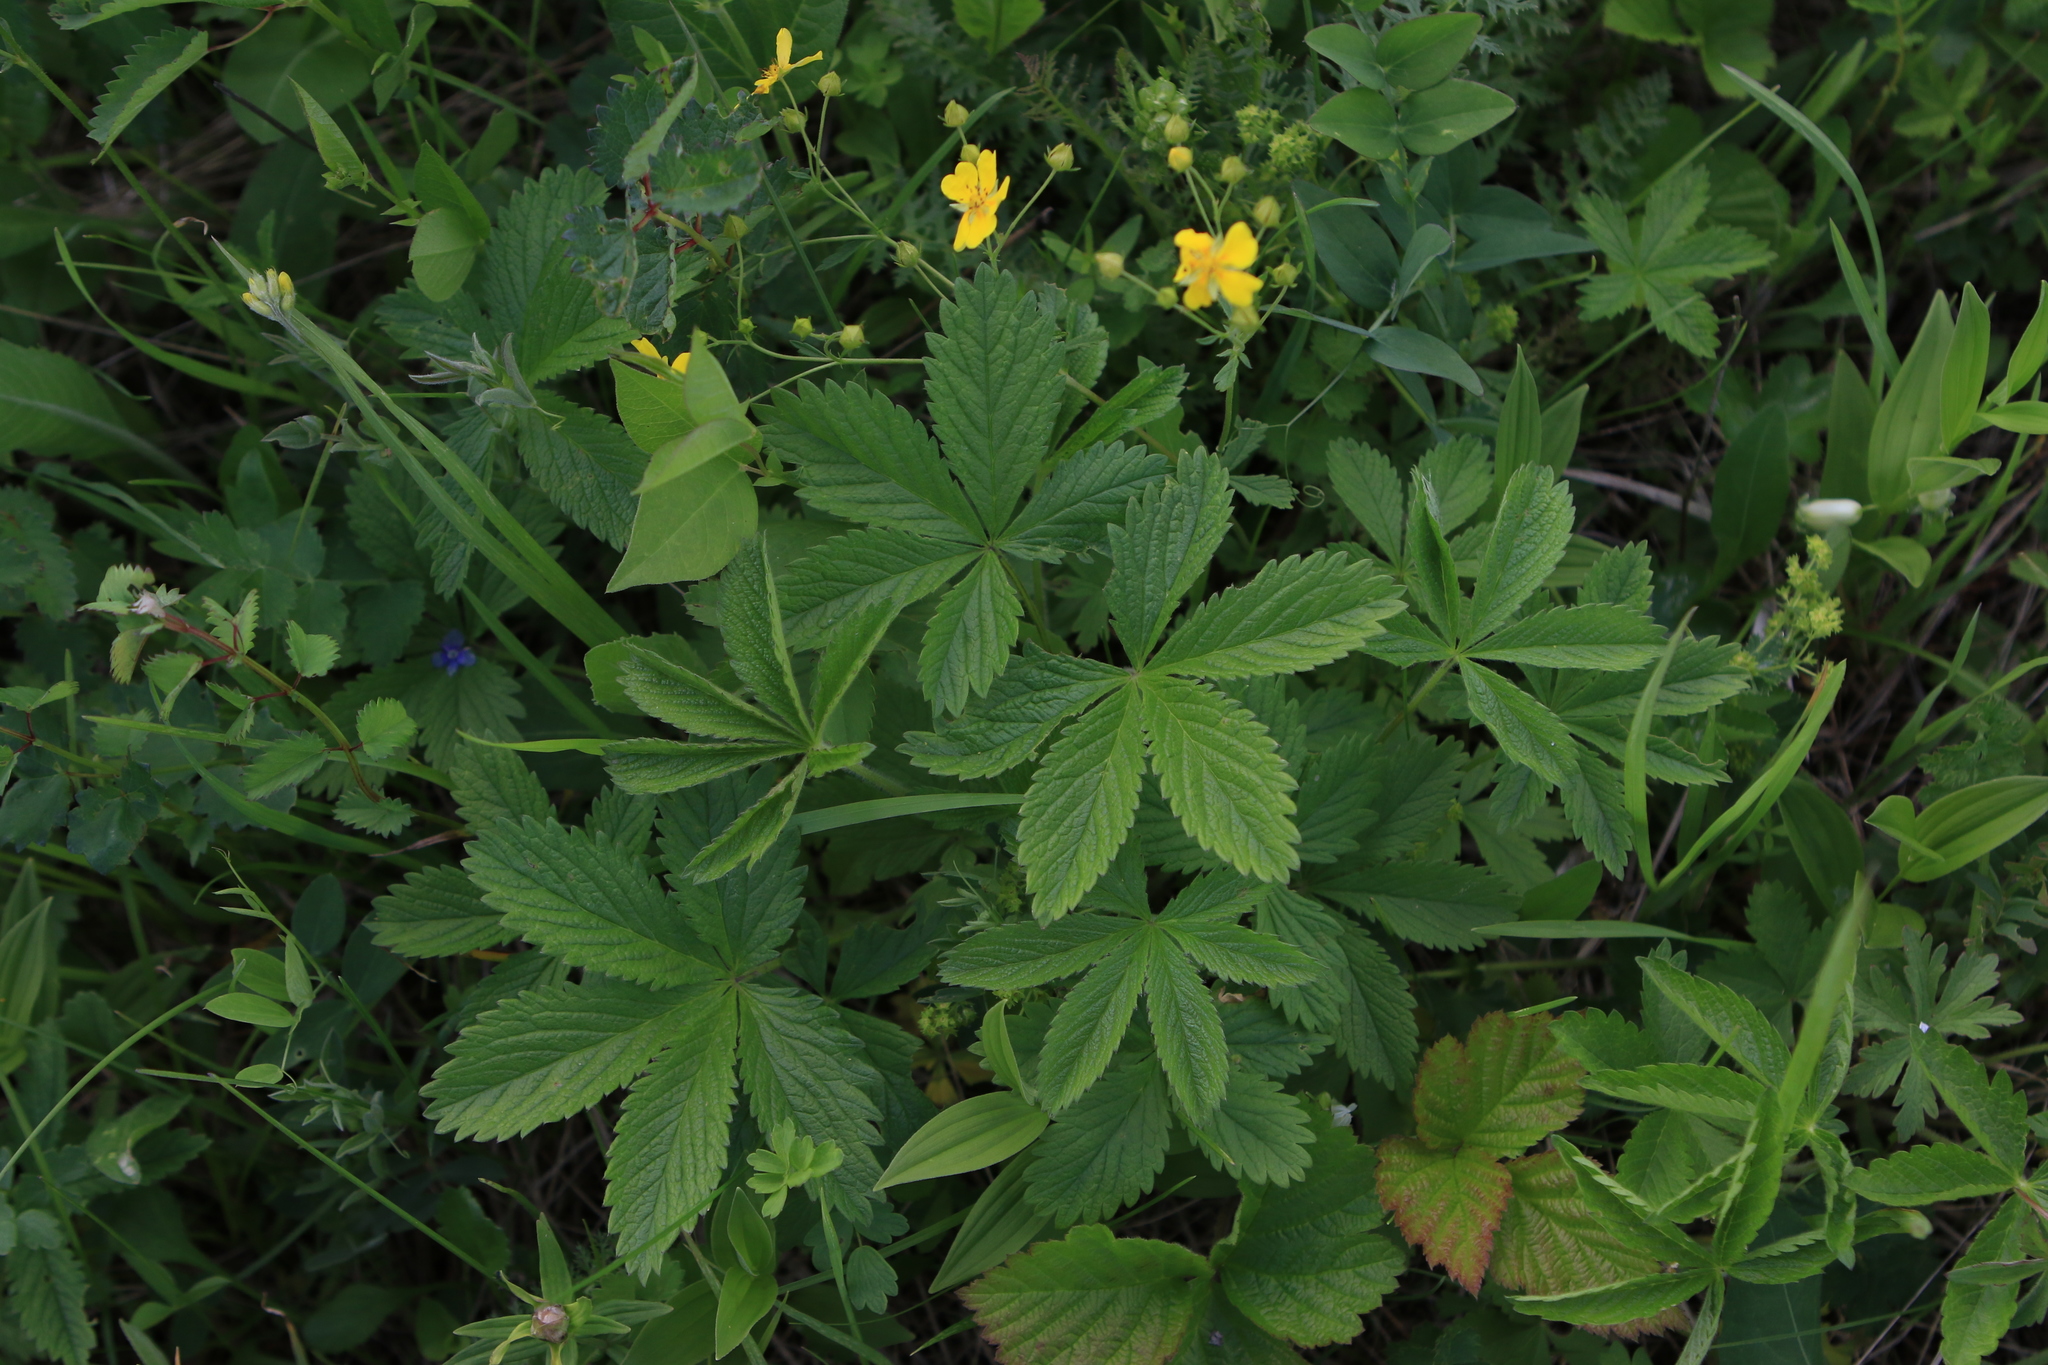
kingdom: Plantae
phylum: Tracheophyta
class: Magnoliopsida
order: Rosales
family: Rosaceae
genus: Potentilla
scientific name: Potentilla chrysantha
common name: Thuringian cinquefoil
